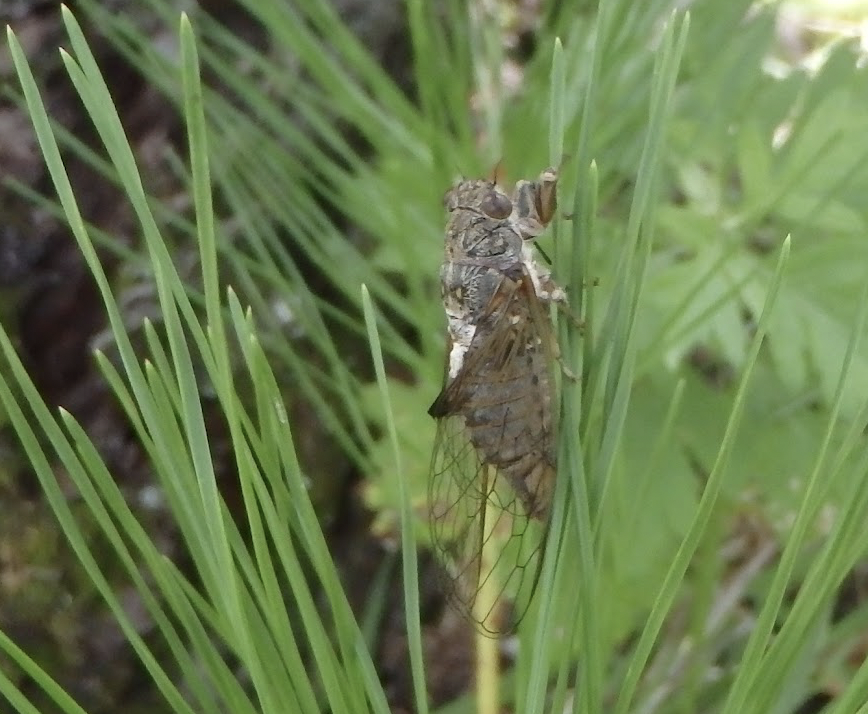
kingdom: Animalia
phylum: Arthropoda
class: Insecta
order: Hemiptera
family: Cicadidae
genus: Kosemia
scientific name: Kosemia radiator
